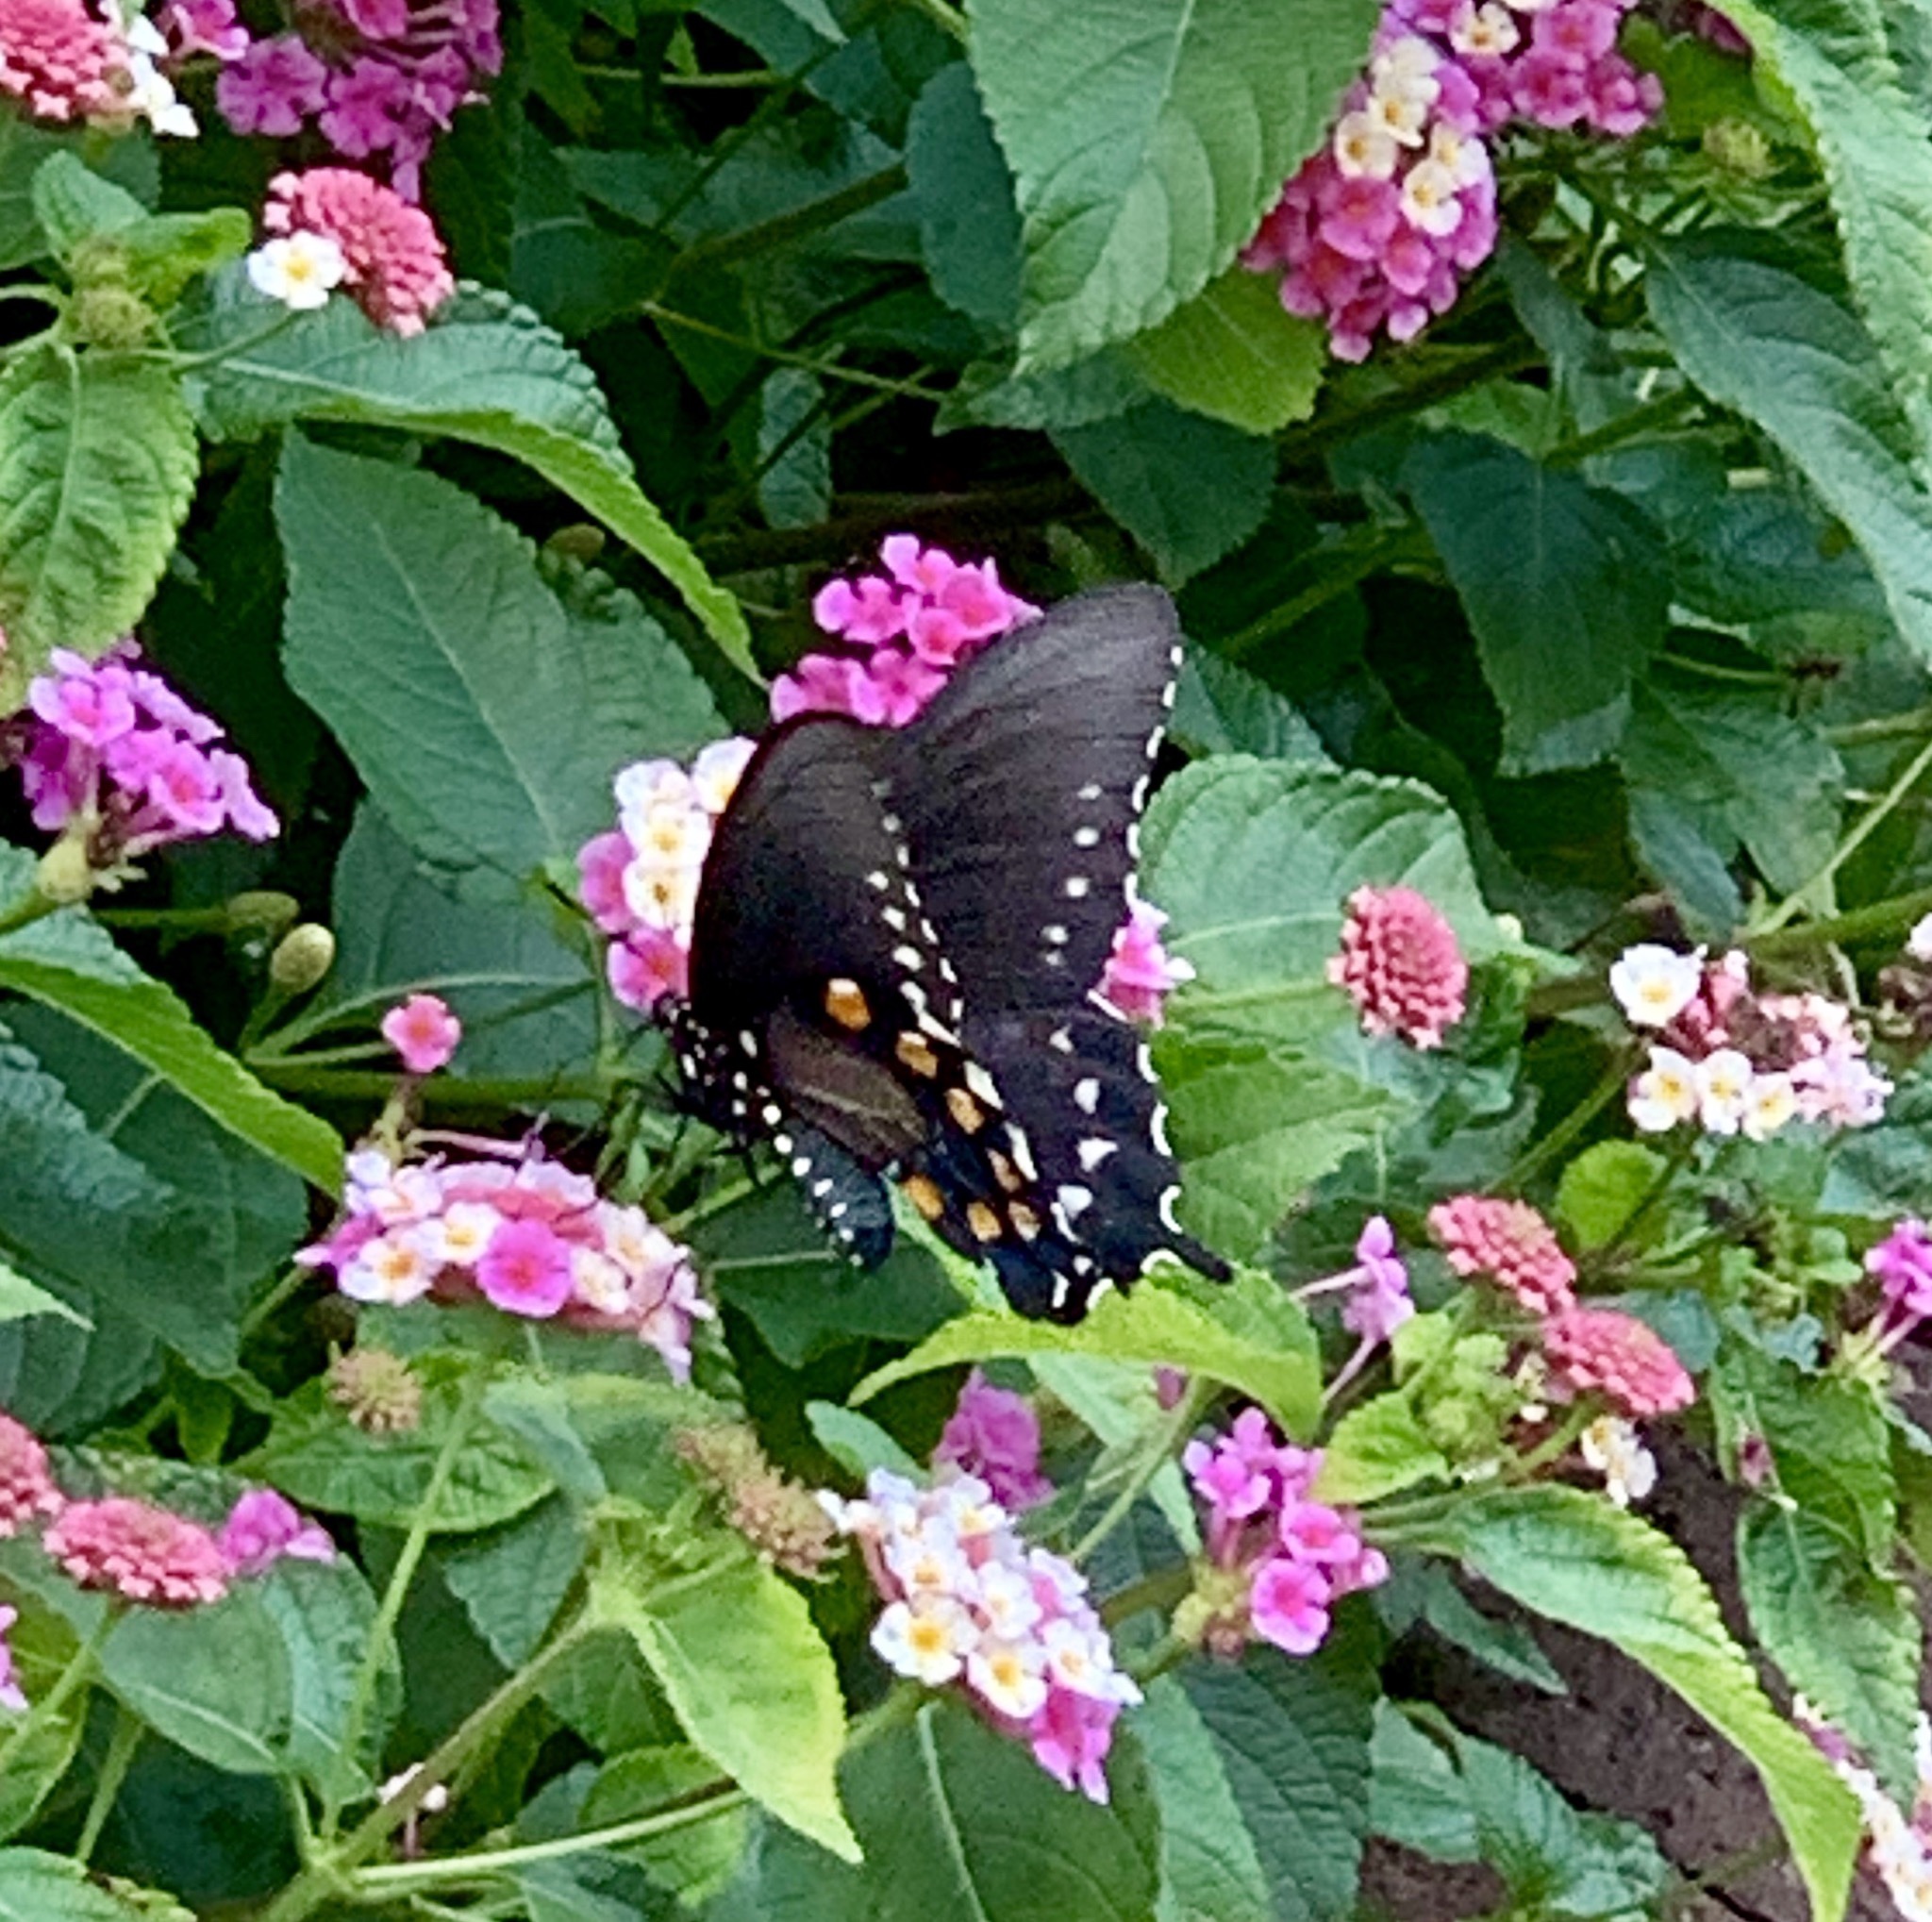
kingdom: Animalia
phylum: Arthropoda
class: Insecta
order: Lepidoptera
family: Papilionidae
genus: Battus
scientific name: Battus philenor
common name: Pipevine swallowtail
